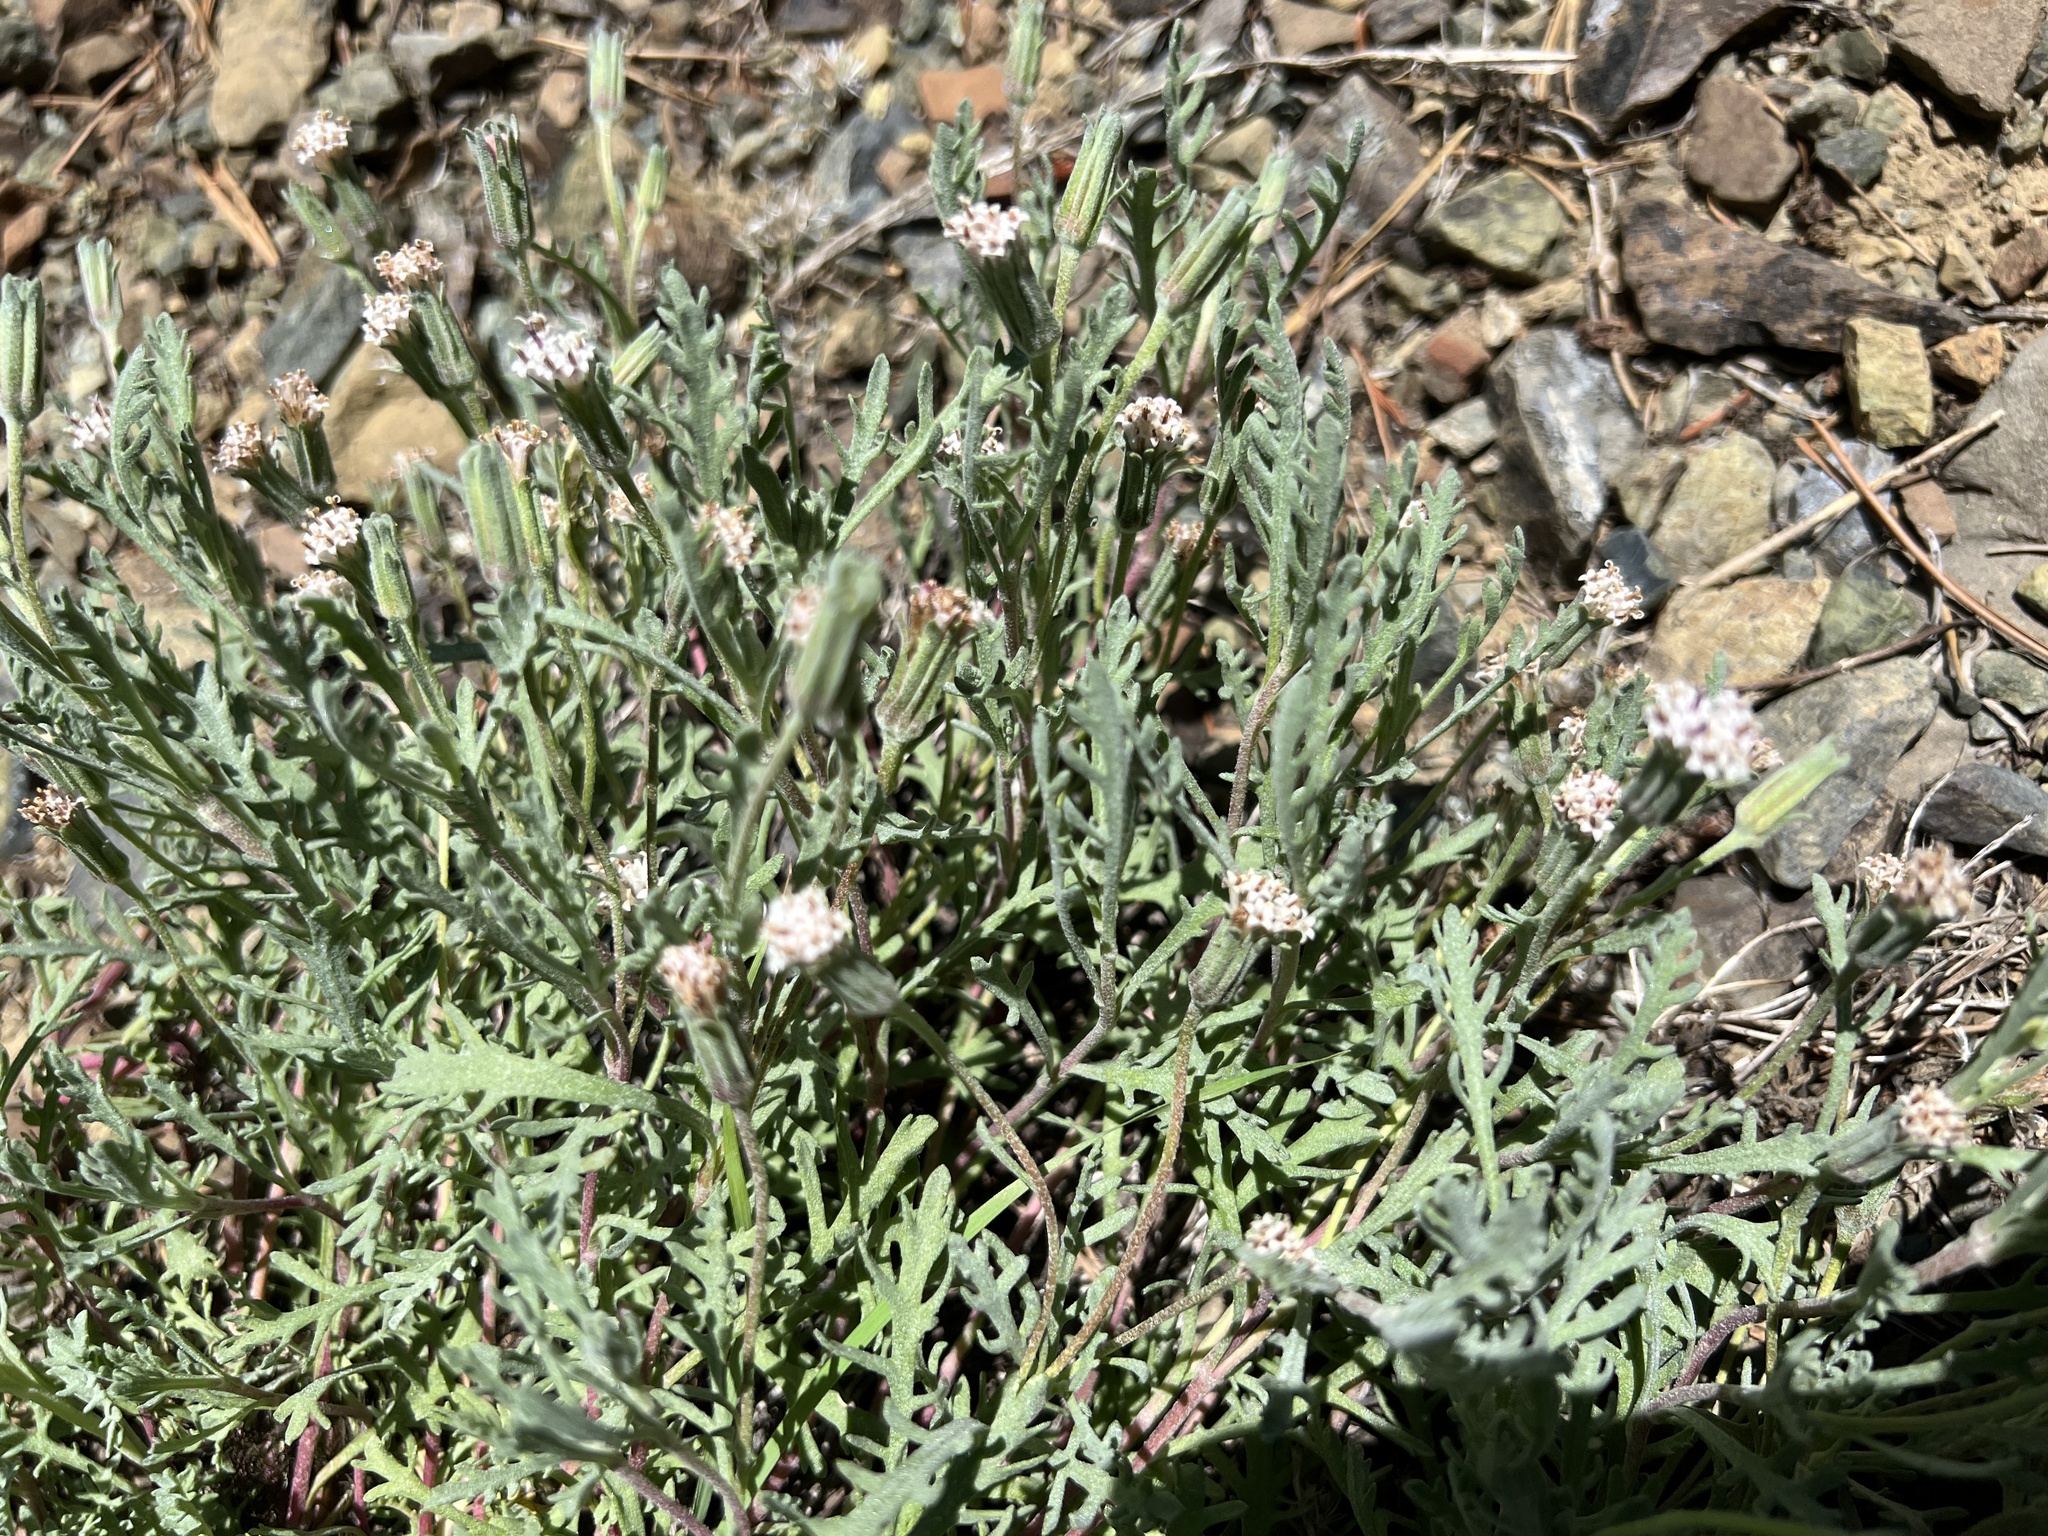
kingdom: Plantae
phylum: Tracheophyta
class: Magnoliopsida
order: Asterales
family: Asteraceae
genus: Chaenactis
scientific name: Chaenactis thompsonii
